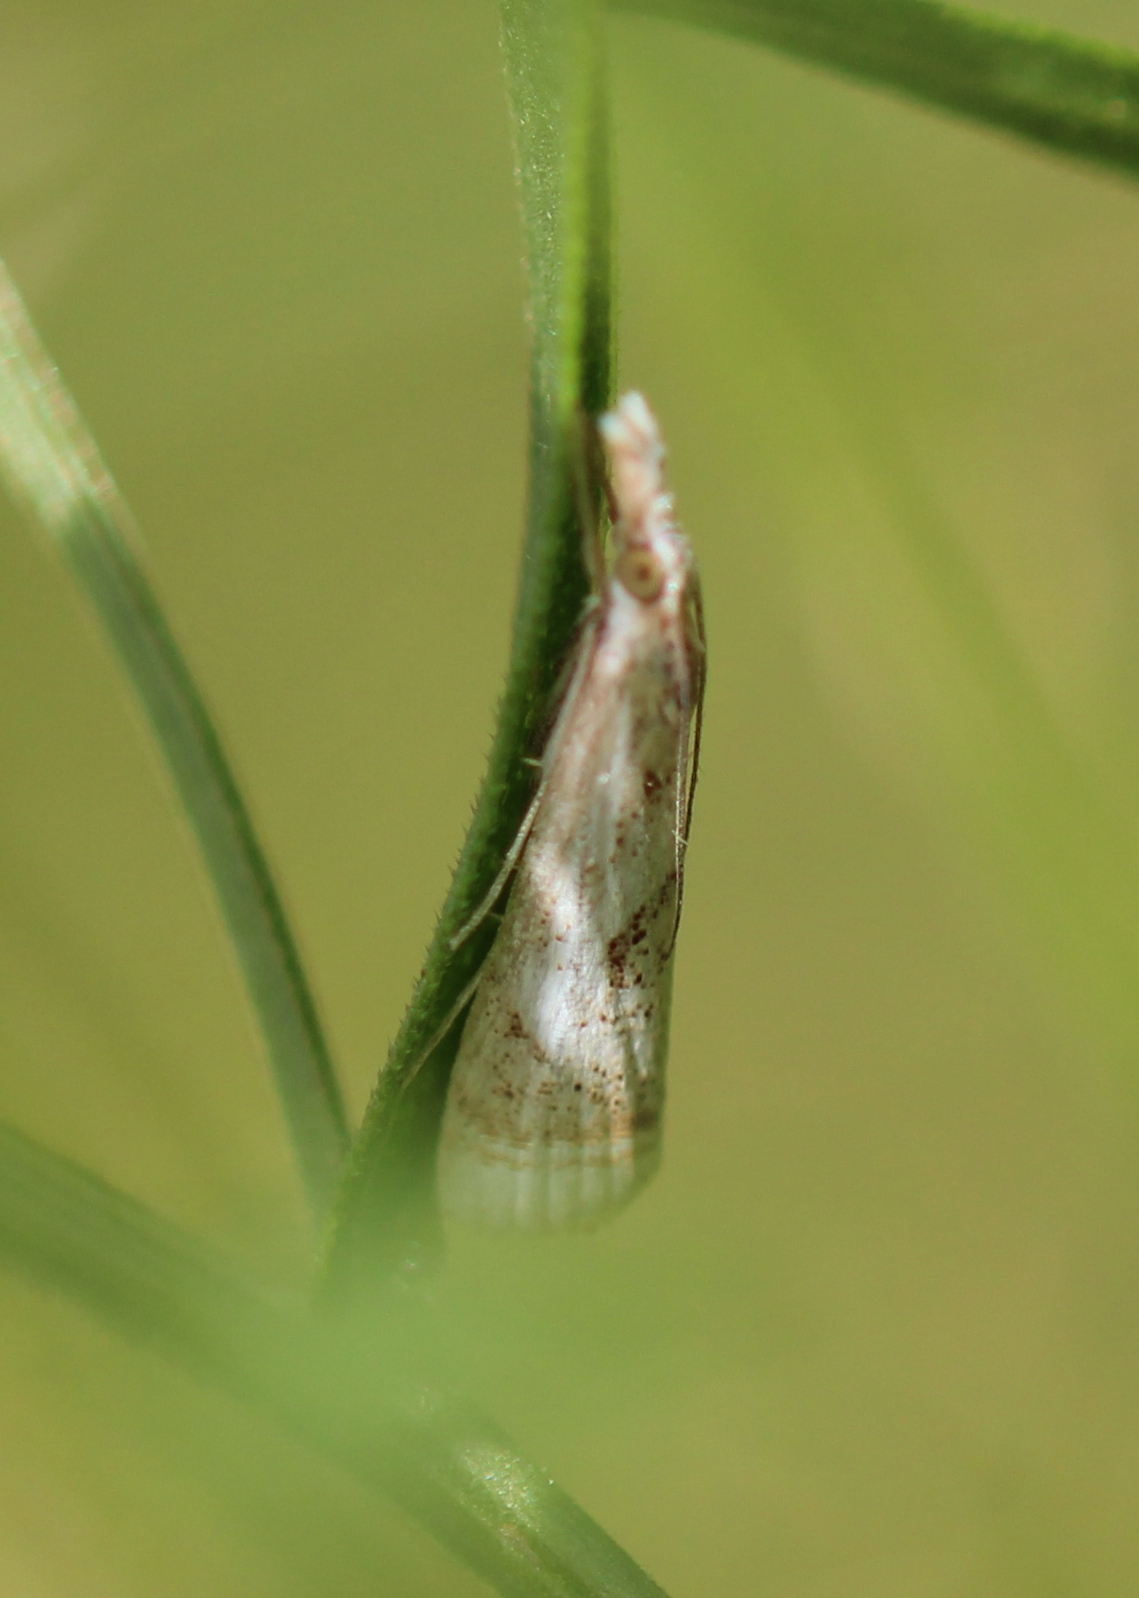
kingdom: Animalia
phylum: Arthropoda
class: Insecta
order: Lepidoptera
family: Crambidae
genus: Microcrambus
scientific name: Microcrambus elegans
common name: Elegant grass-veneer
